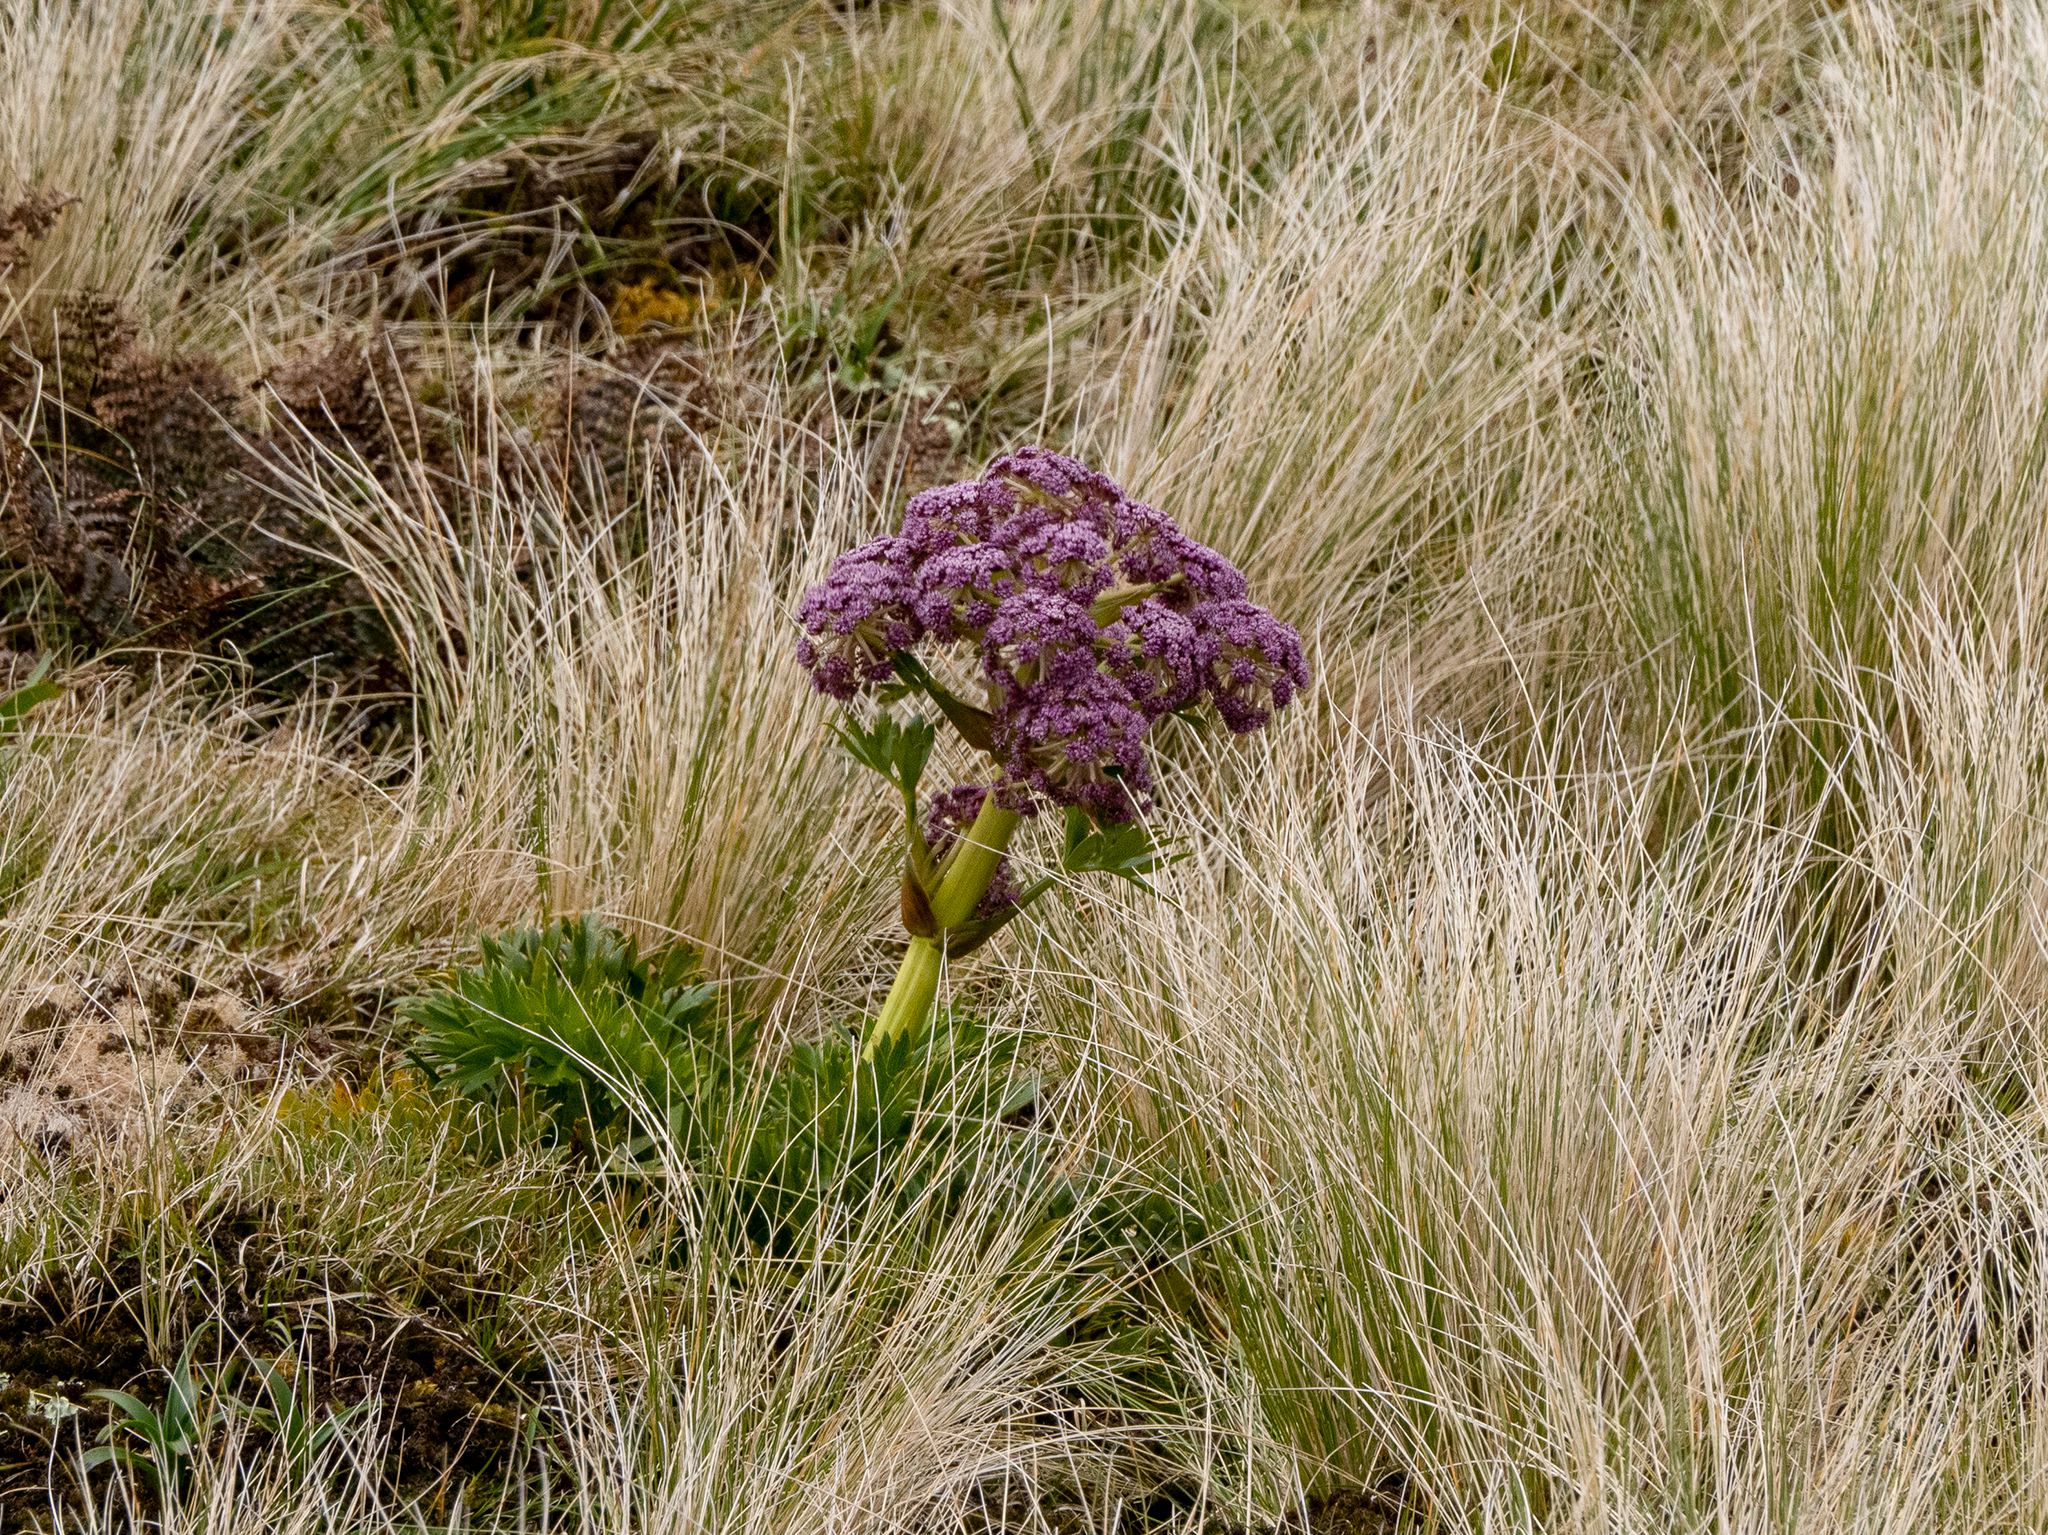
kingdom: Plantae
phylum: Tracheophyta
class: Magnoliopsida
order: Apiales
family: Apiaceae
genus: Anisotome
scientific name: Anisotome latifolia
